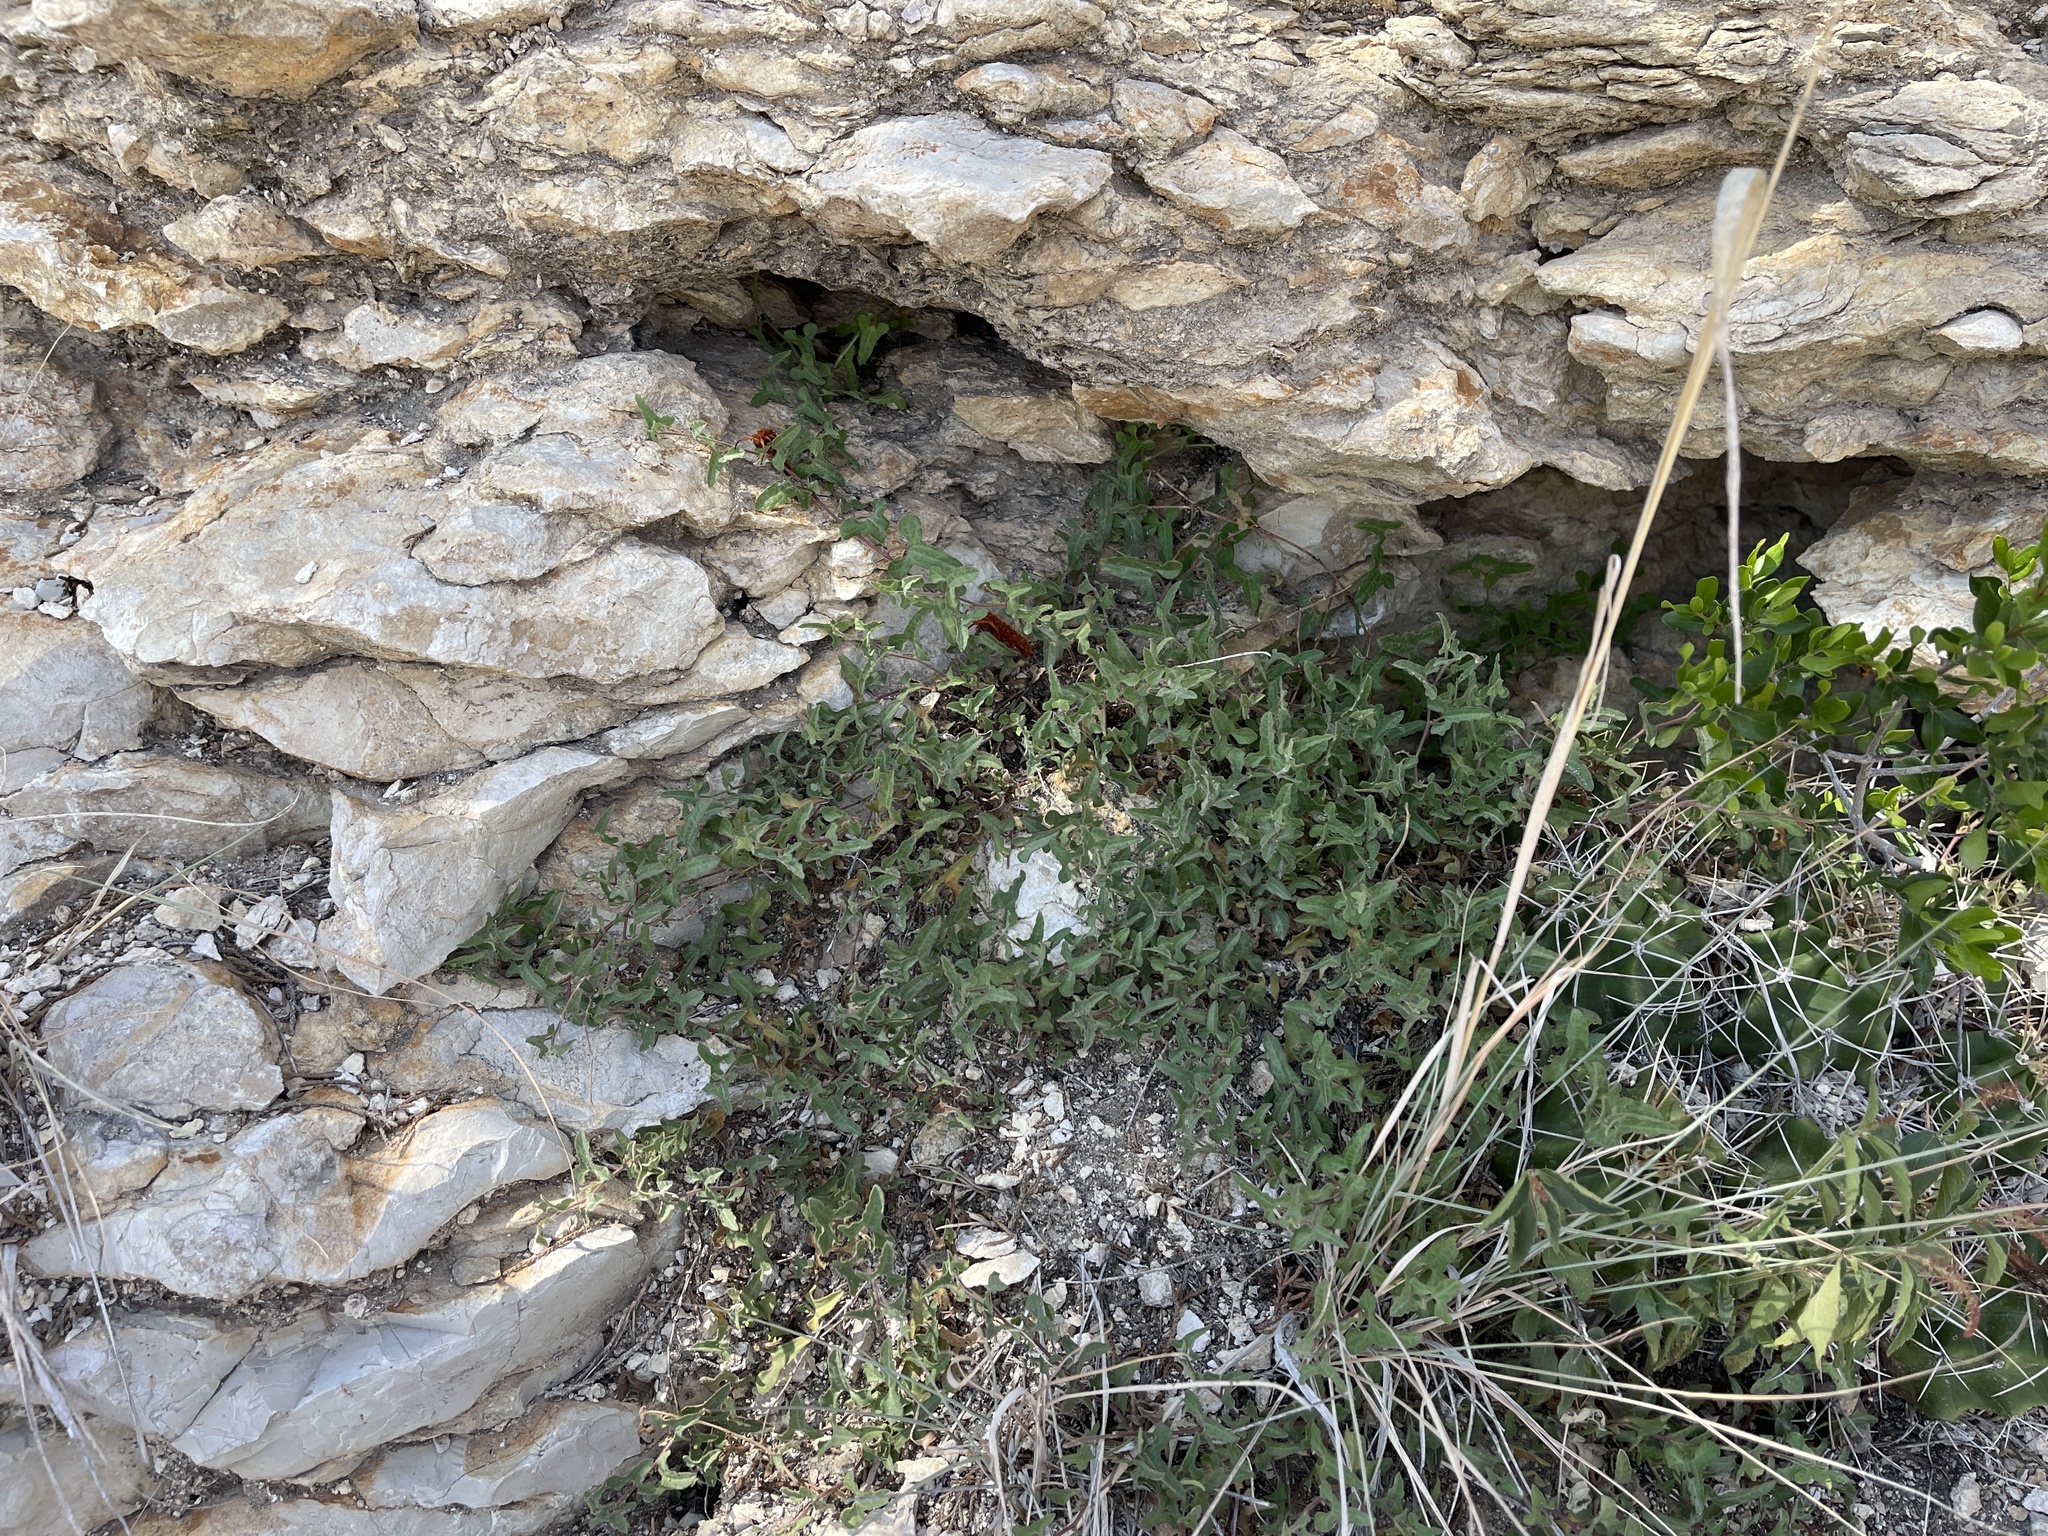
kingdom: Plantae
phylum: Tracheophyta
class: Magnoliopsida
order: Piperales
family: Aristolochiaceae
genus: Aristolochia
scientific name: Aristolochia coryi
